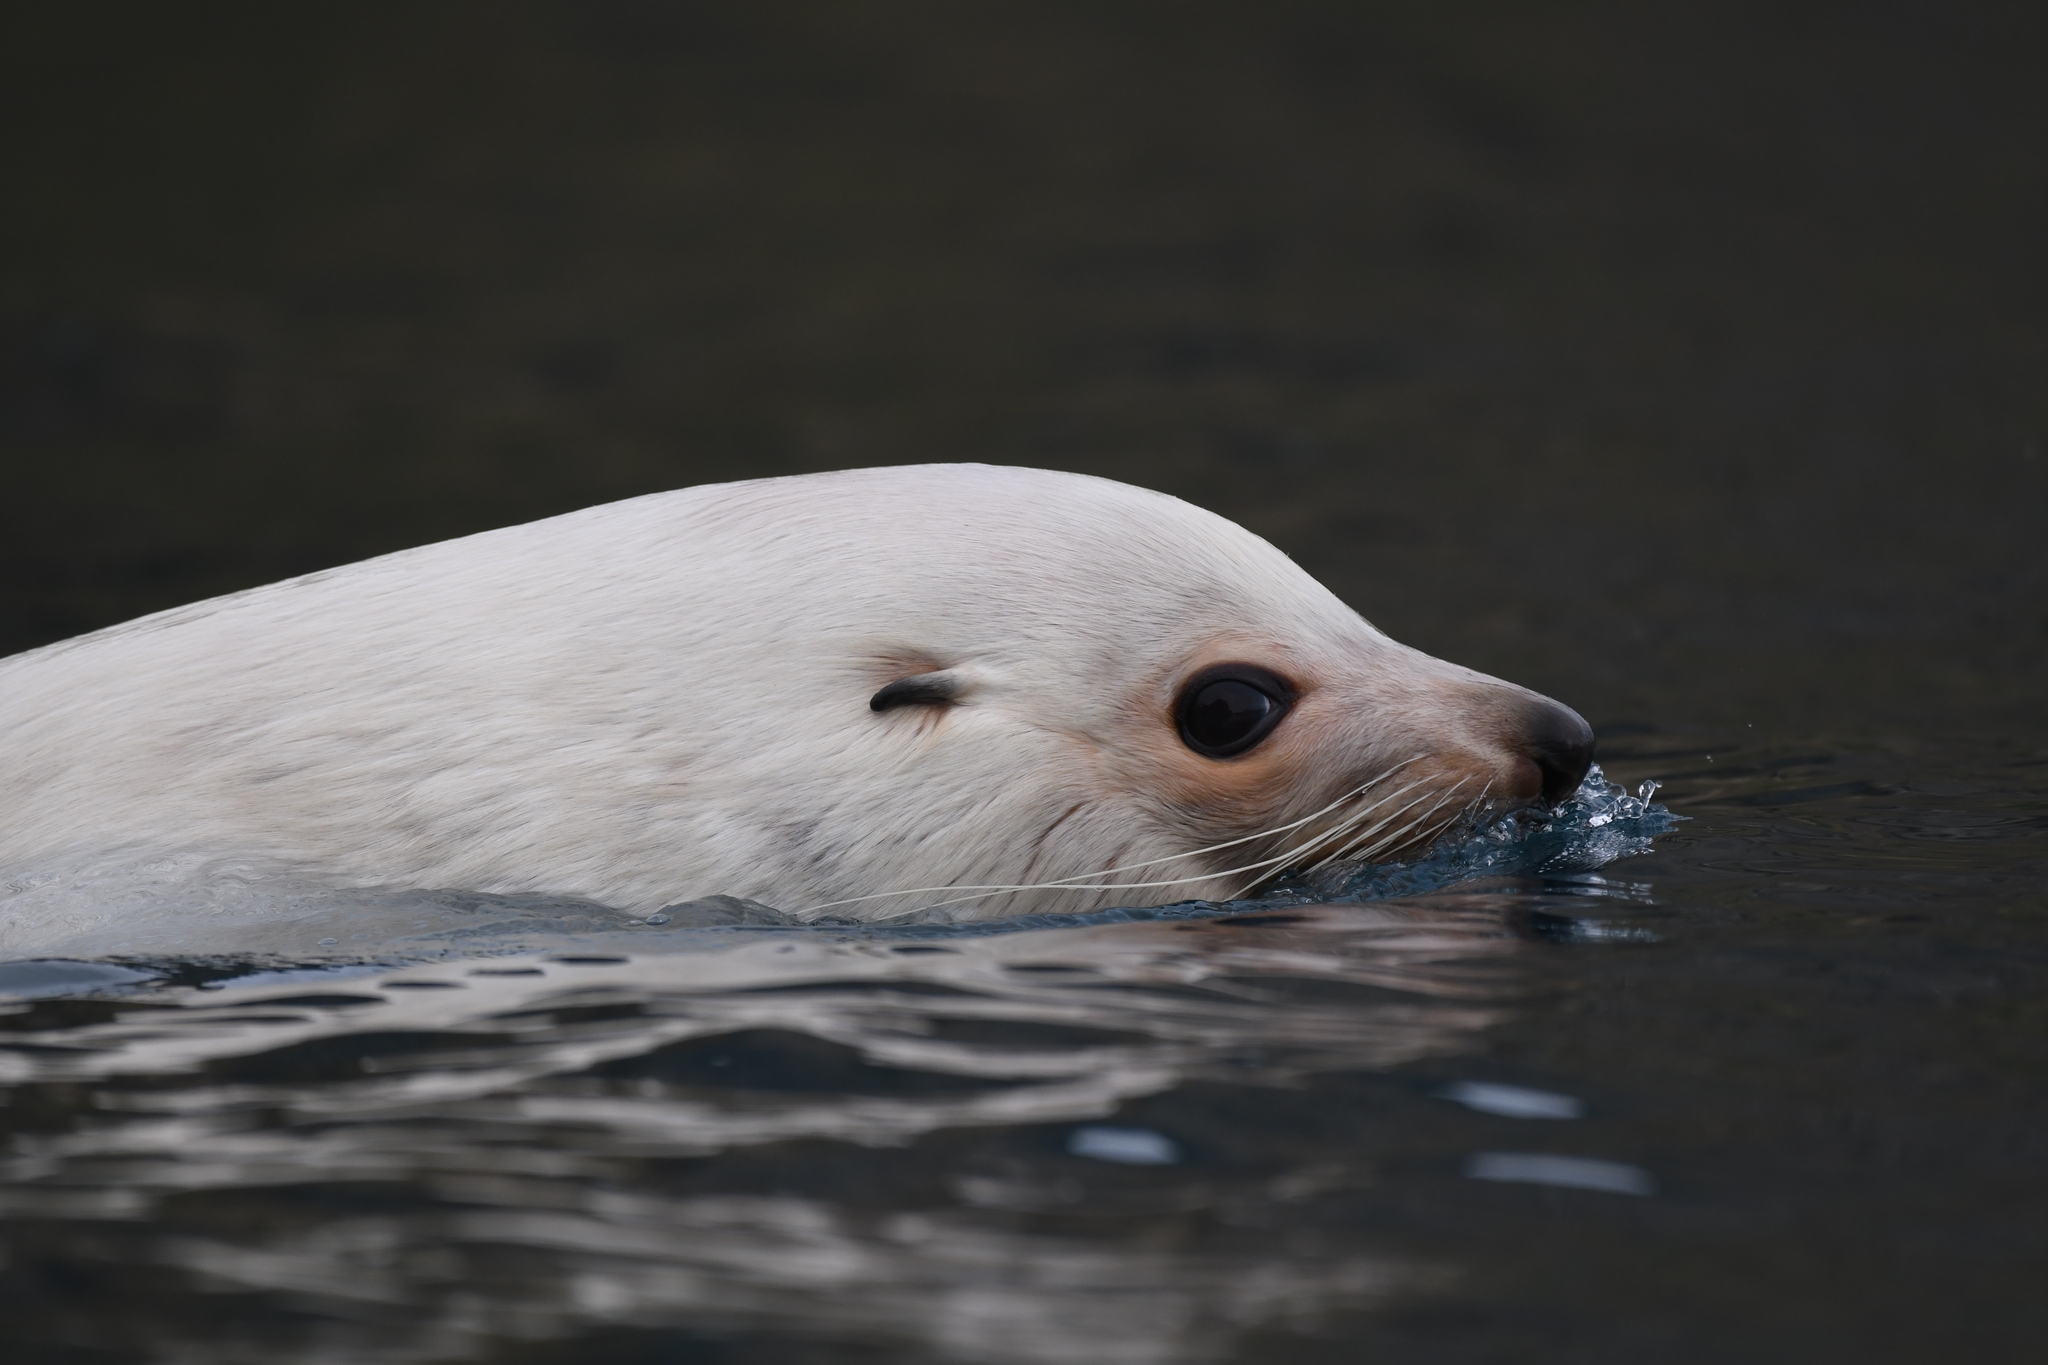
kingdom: Animalia
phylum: Chordata
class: Mammalia
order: Carnivora
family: Otariidae
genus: Arctocephalus
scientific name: Arctocephalus gazella
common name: Antarctic fur seal
